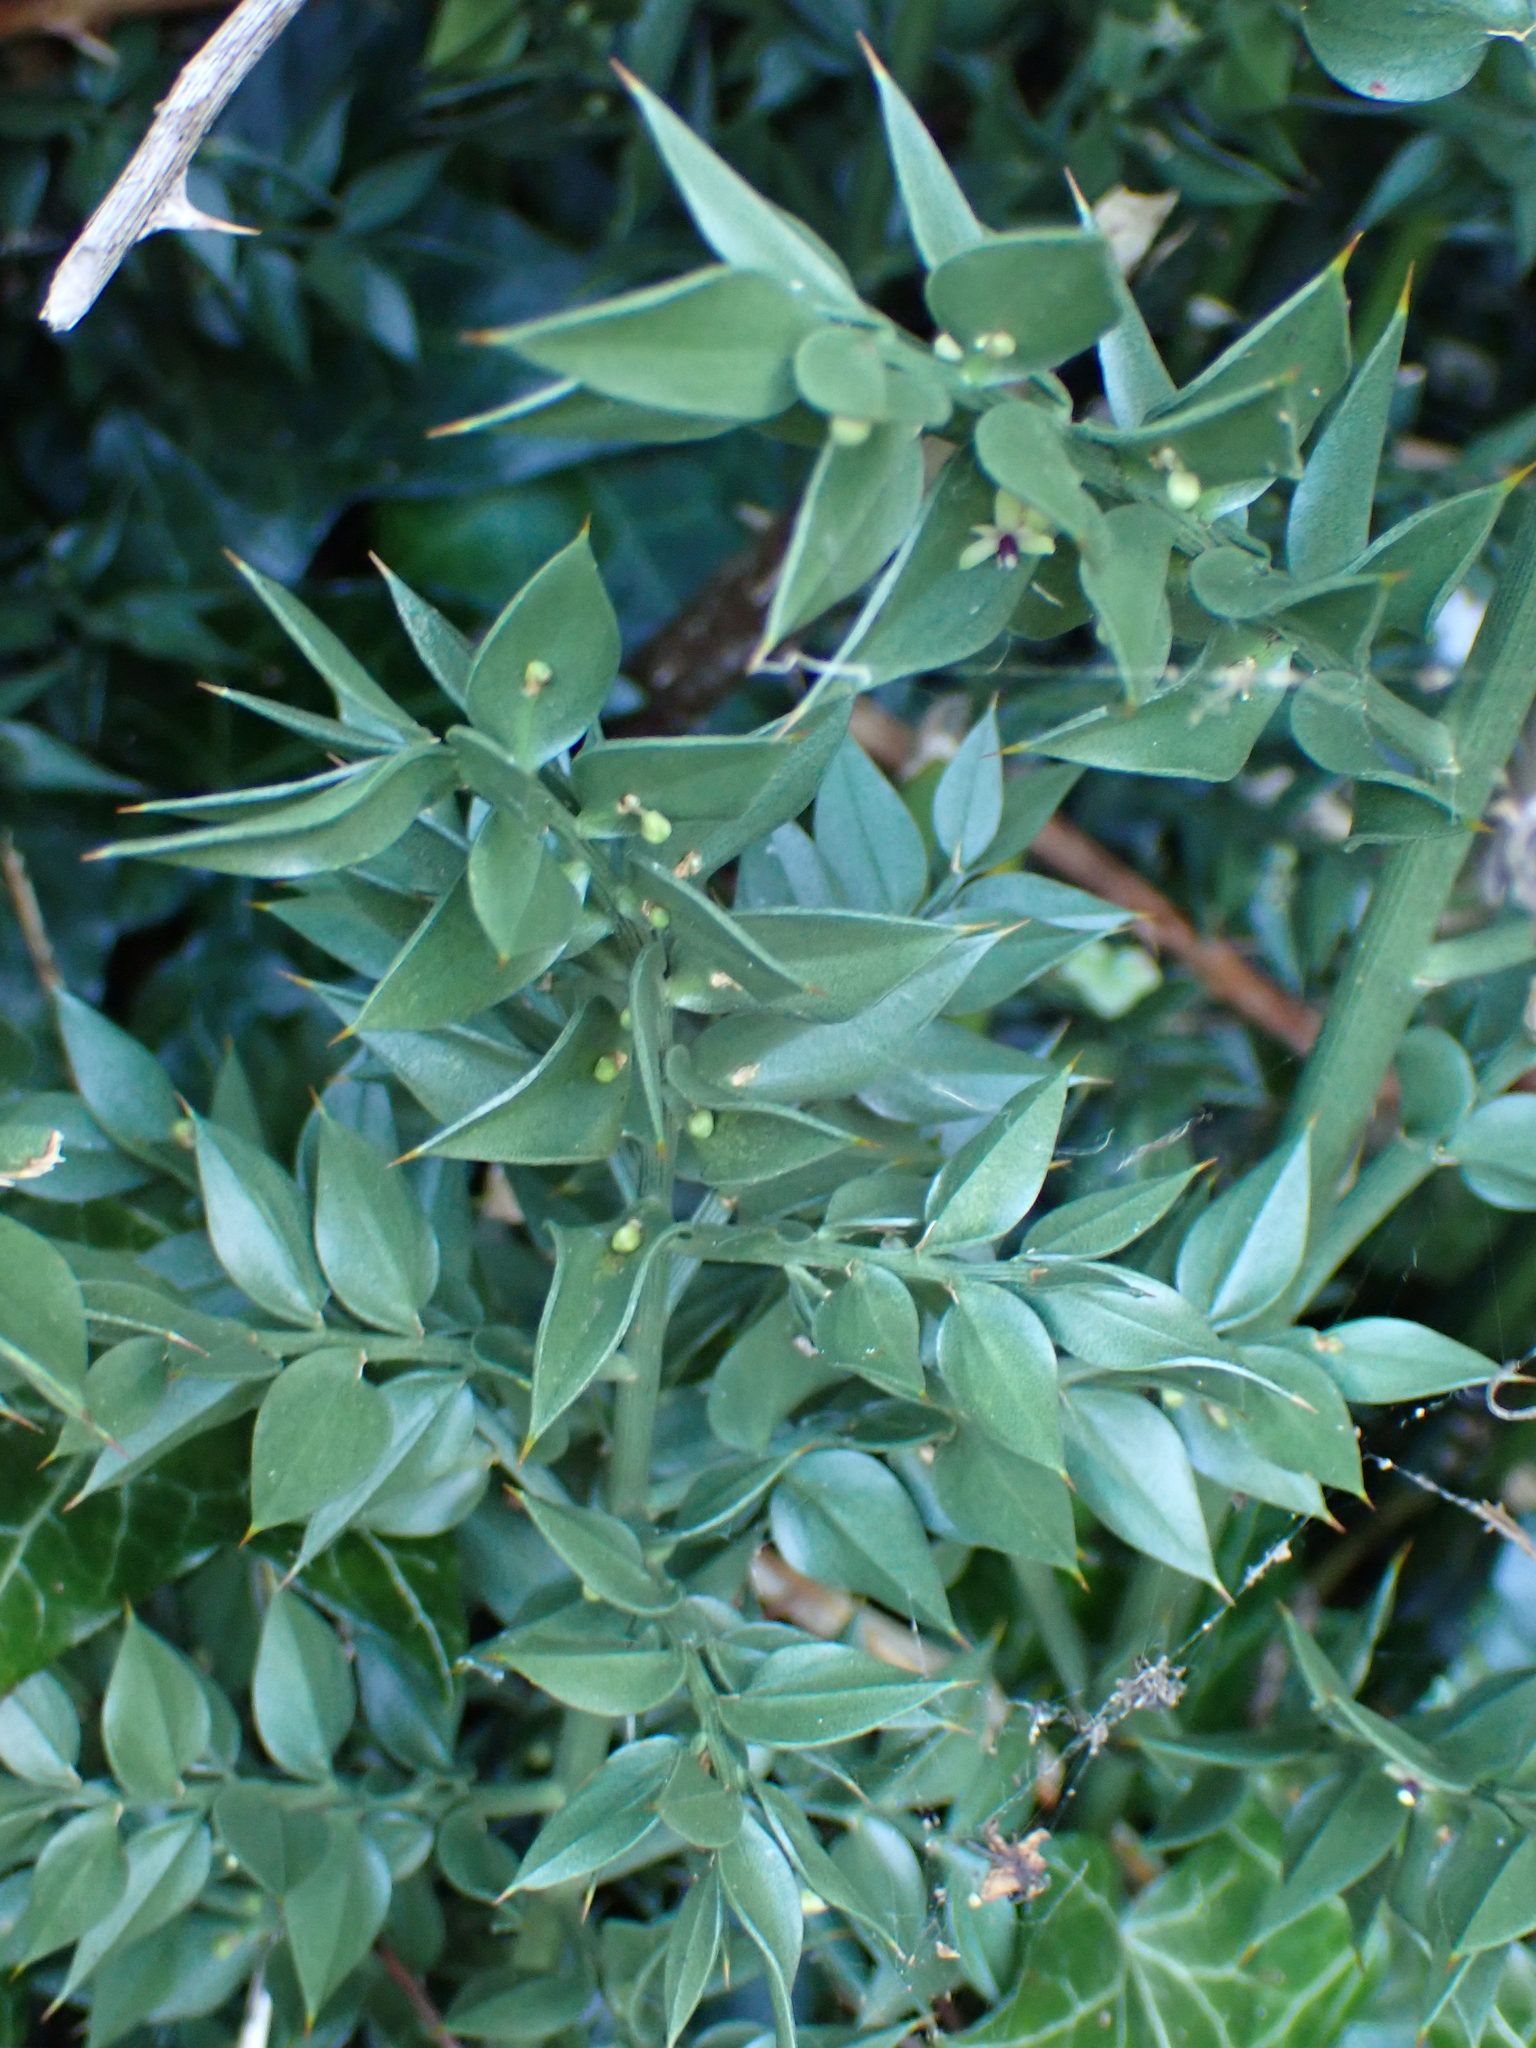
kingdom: Plantae
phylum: Tracheophyta
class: Liliopsida
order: Asparagales
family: Asparagaceae
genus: Ruscus
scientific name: Ruscus aculeatus
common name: Butcher's-broom
